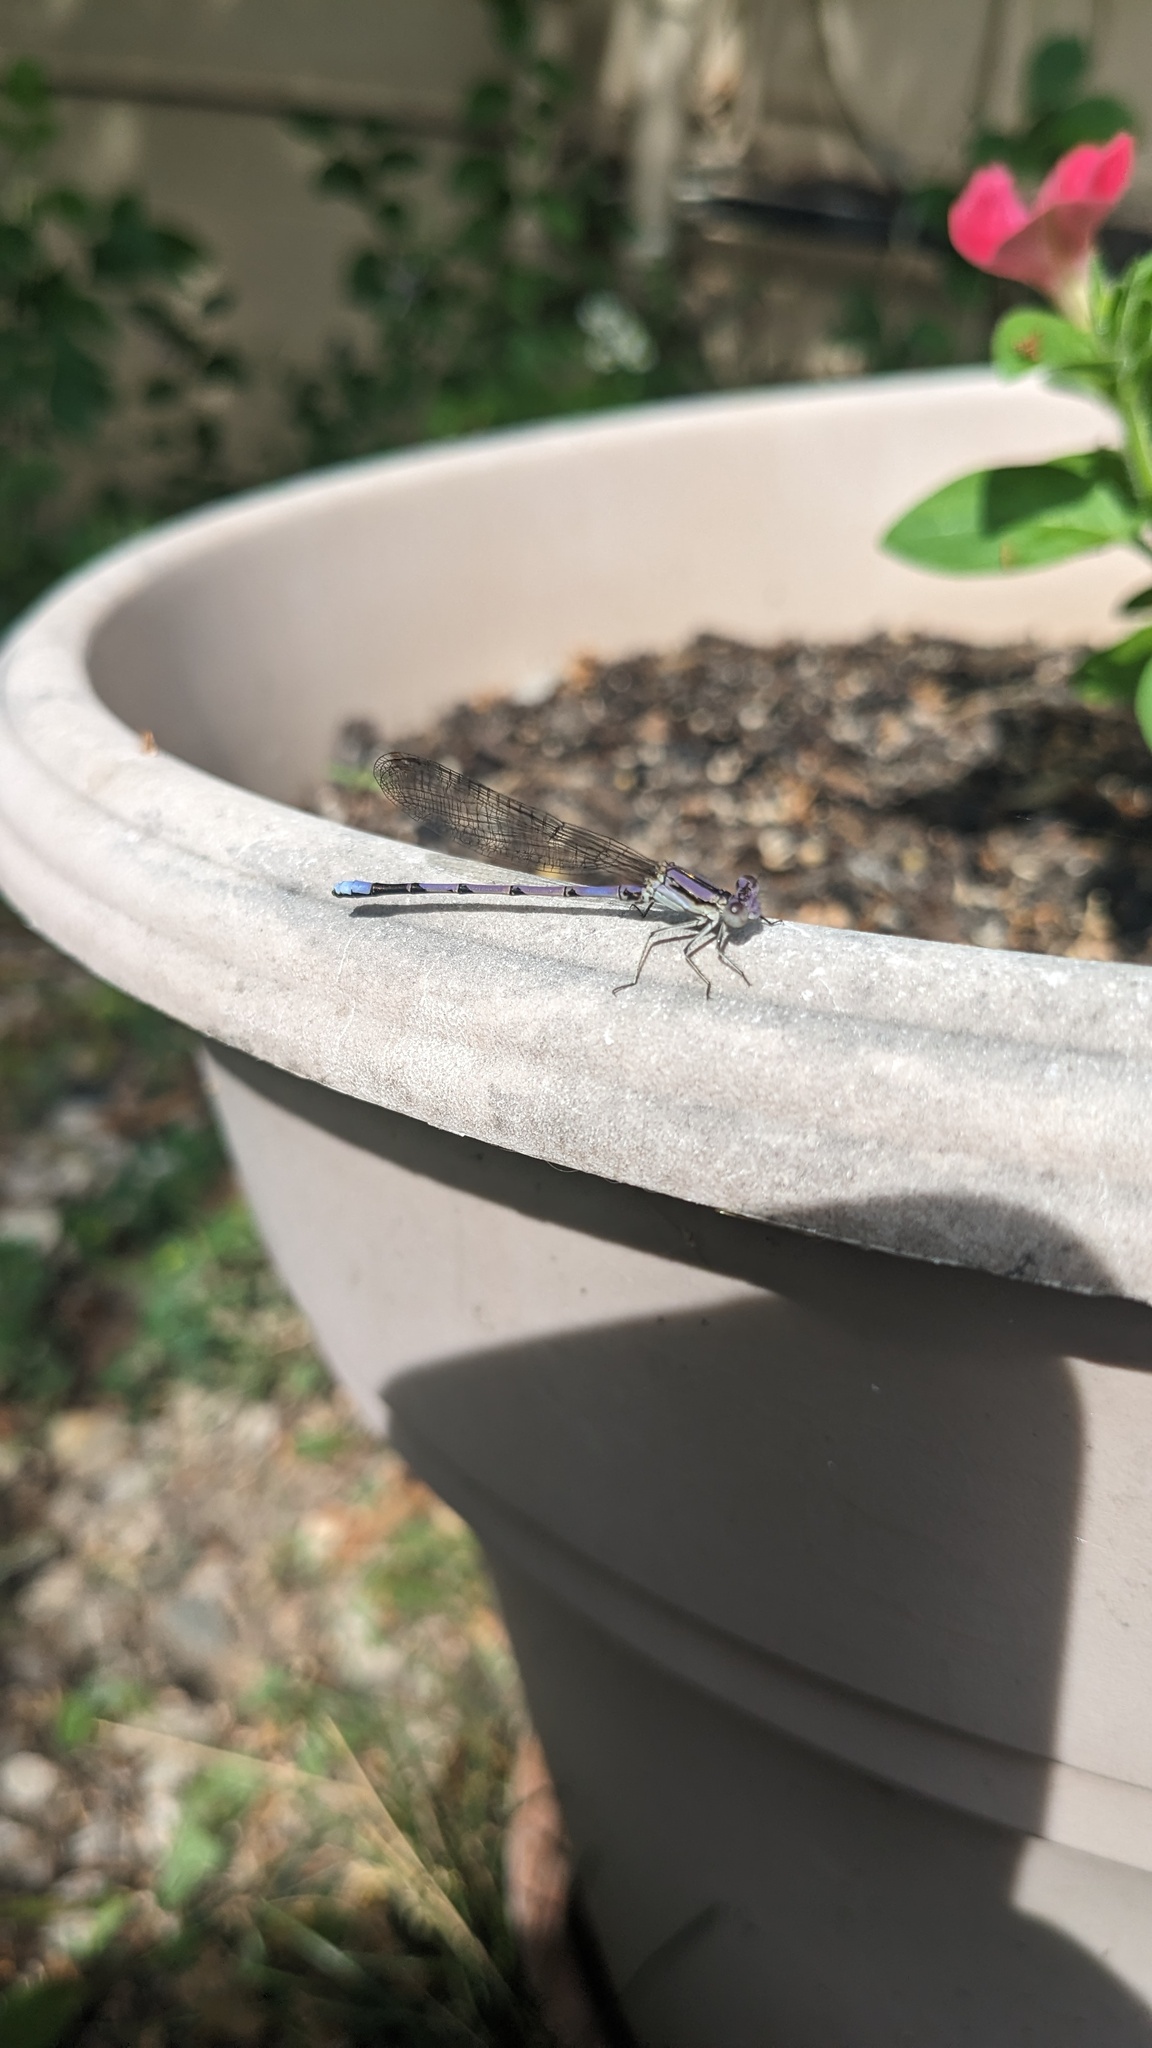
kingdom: Animalia
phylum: Arthropoda
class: Insecta
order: Odonata
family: Coenagrionidae
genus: Argia
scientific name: Argia fumipennis
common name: Variable dancer
